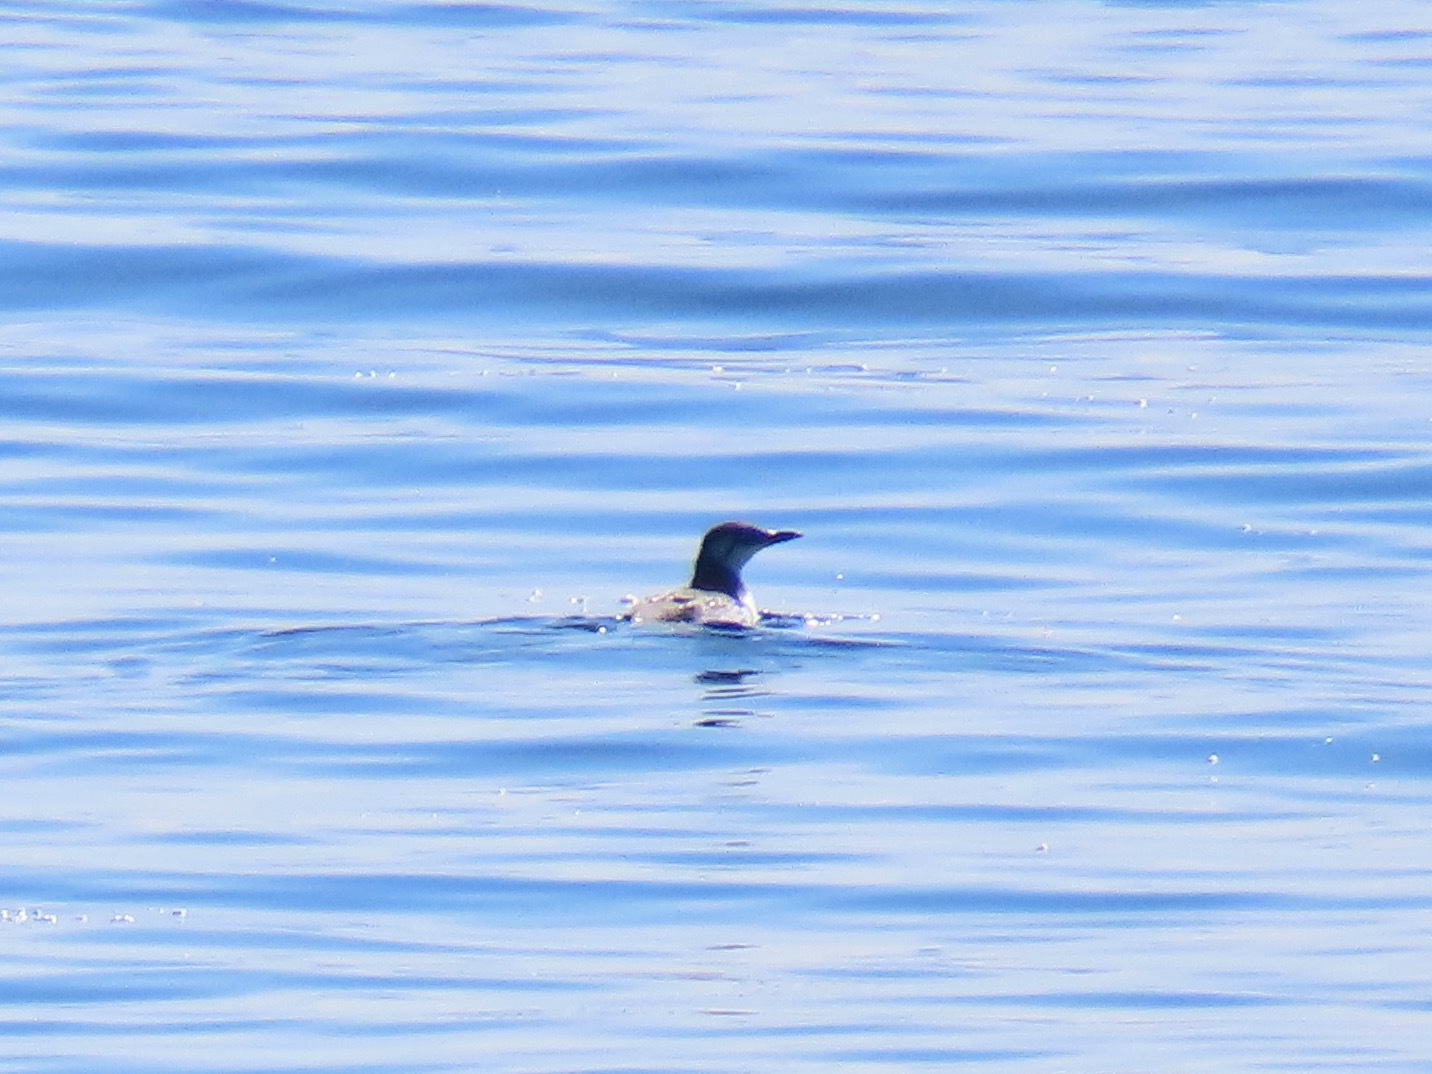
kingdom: Animalia
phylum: Chordata
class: Aves
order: Charadriiformes
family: Alcidae
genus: Uria
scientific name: Uria aalge
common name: Common murre
